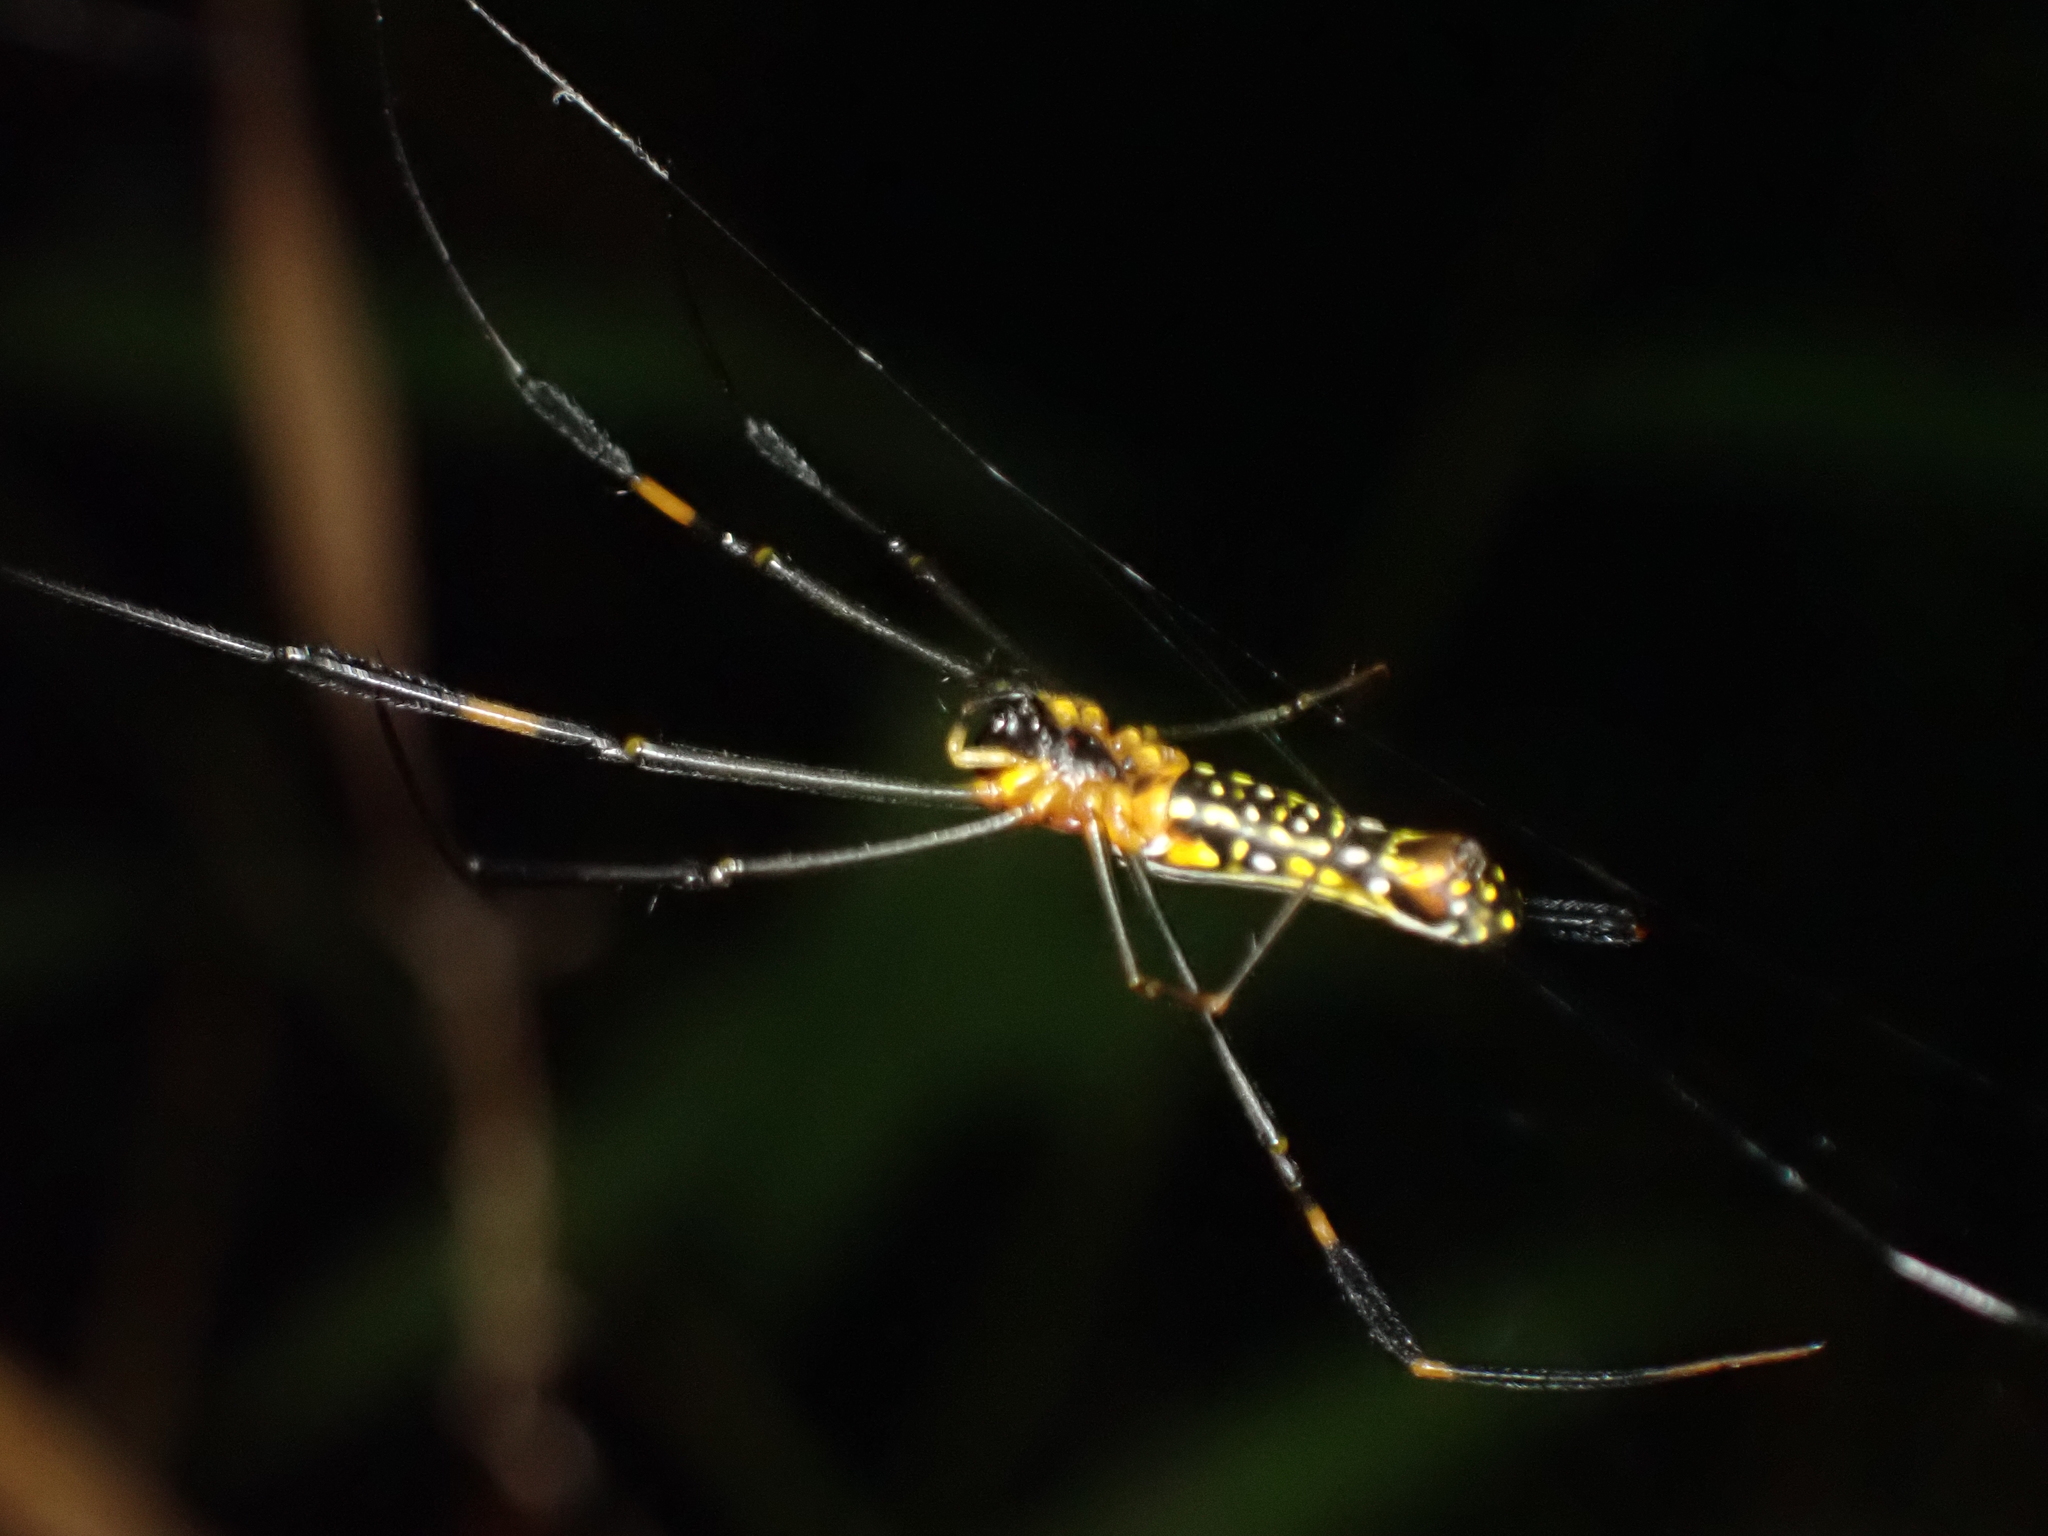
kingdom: Animalia
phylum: Arthropoda
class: Arachnida
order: Araneae
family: Araneidae
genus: Nephila
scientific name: Nephila pilipes
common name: Giant golden orb weaver
